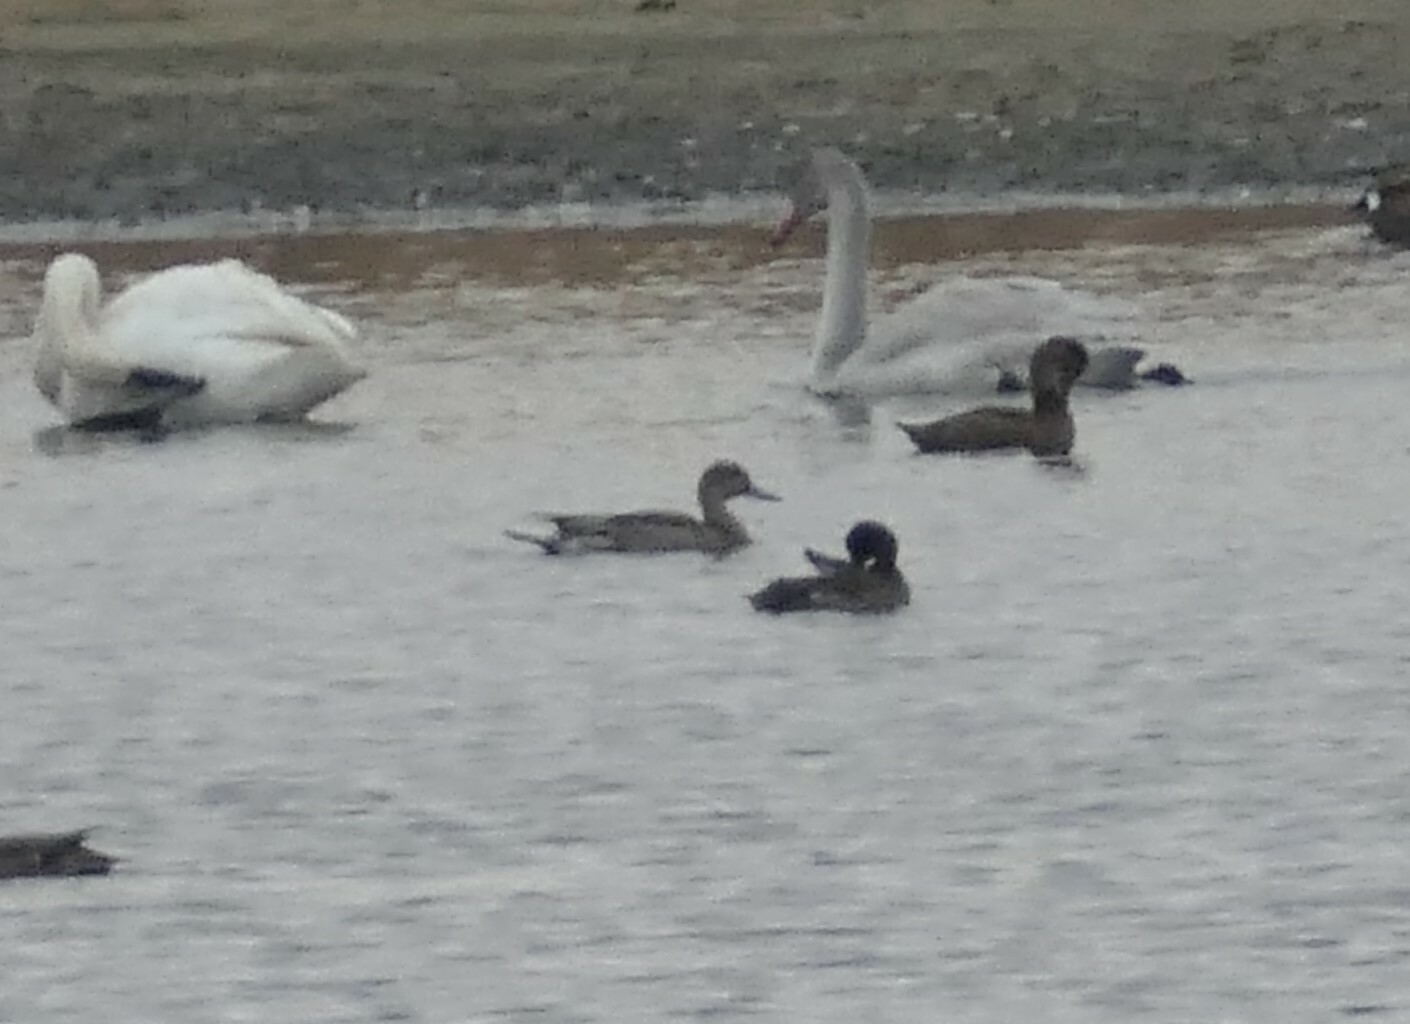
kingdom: Animalia
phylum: Chordata
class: Aves
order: Anseriformes
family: Anatidae
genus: Anas
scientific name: Anas acuta
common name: Northern pintail
